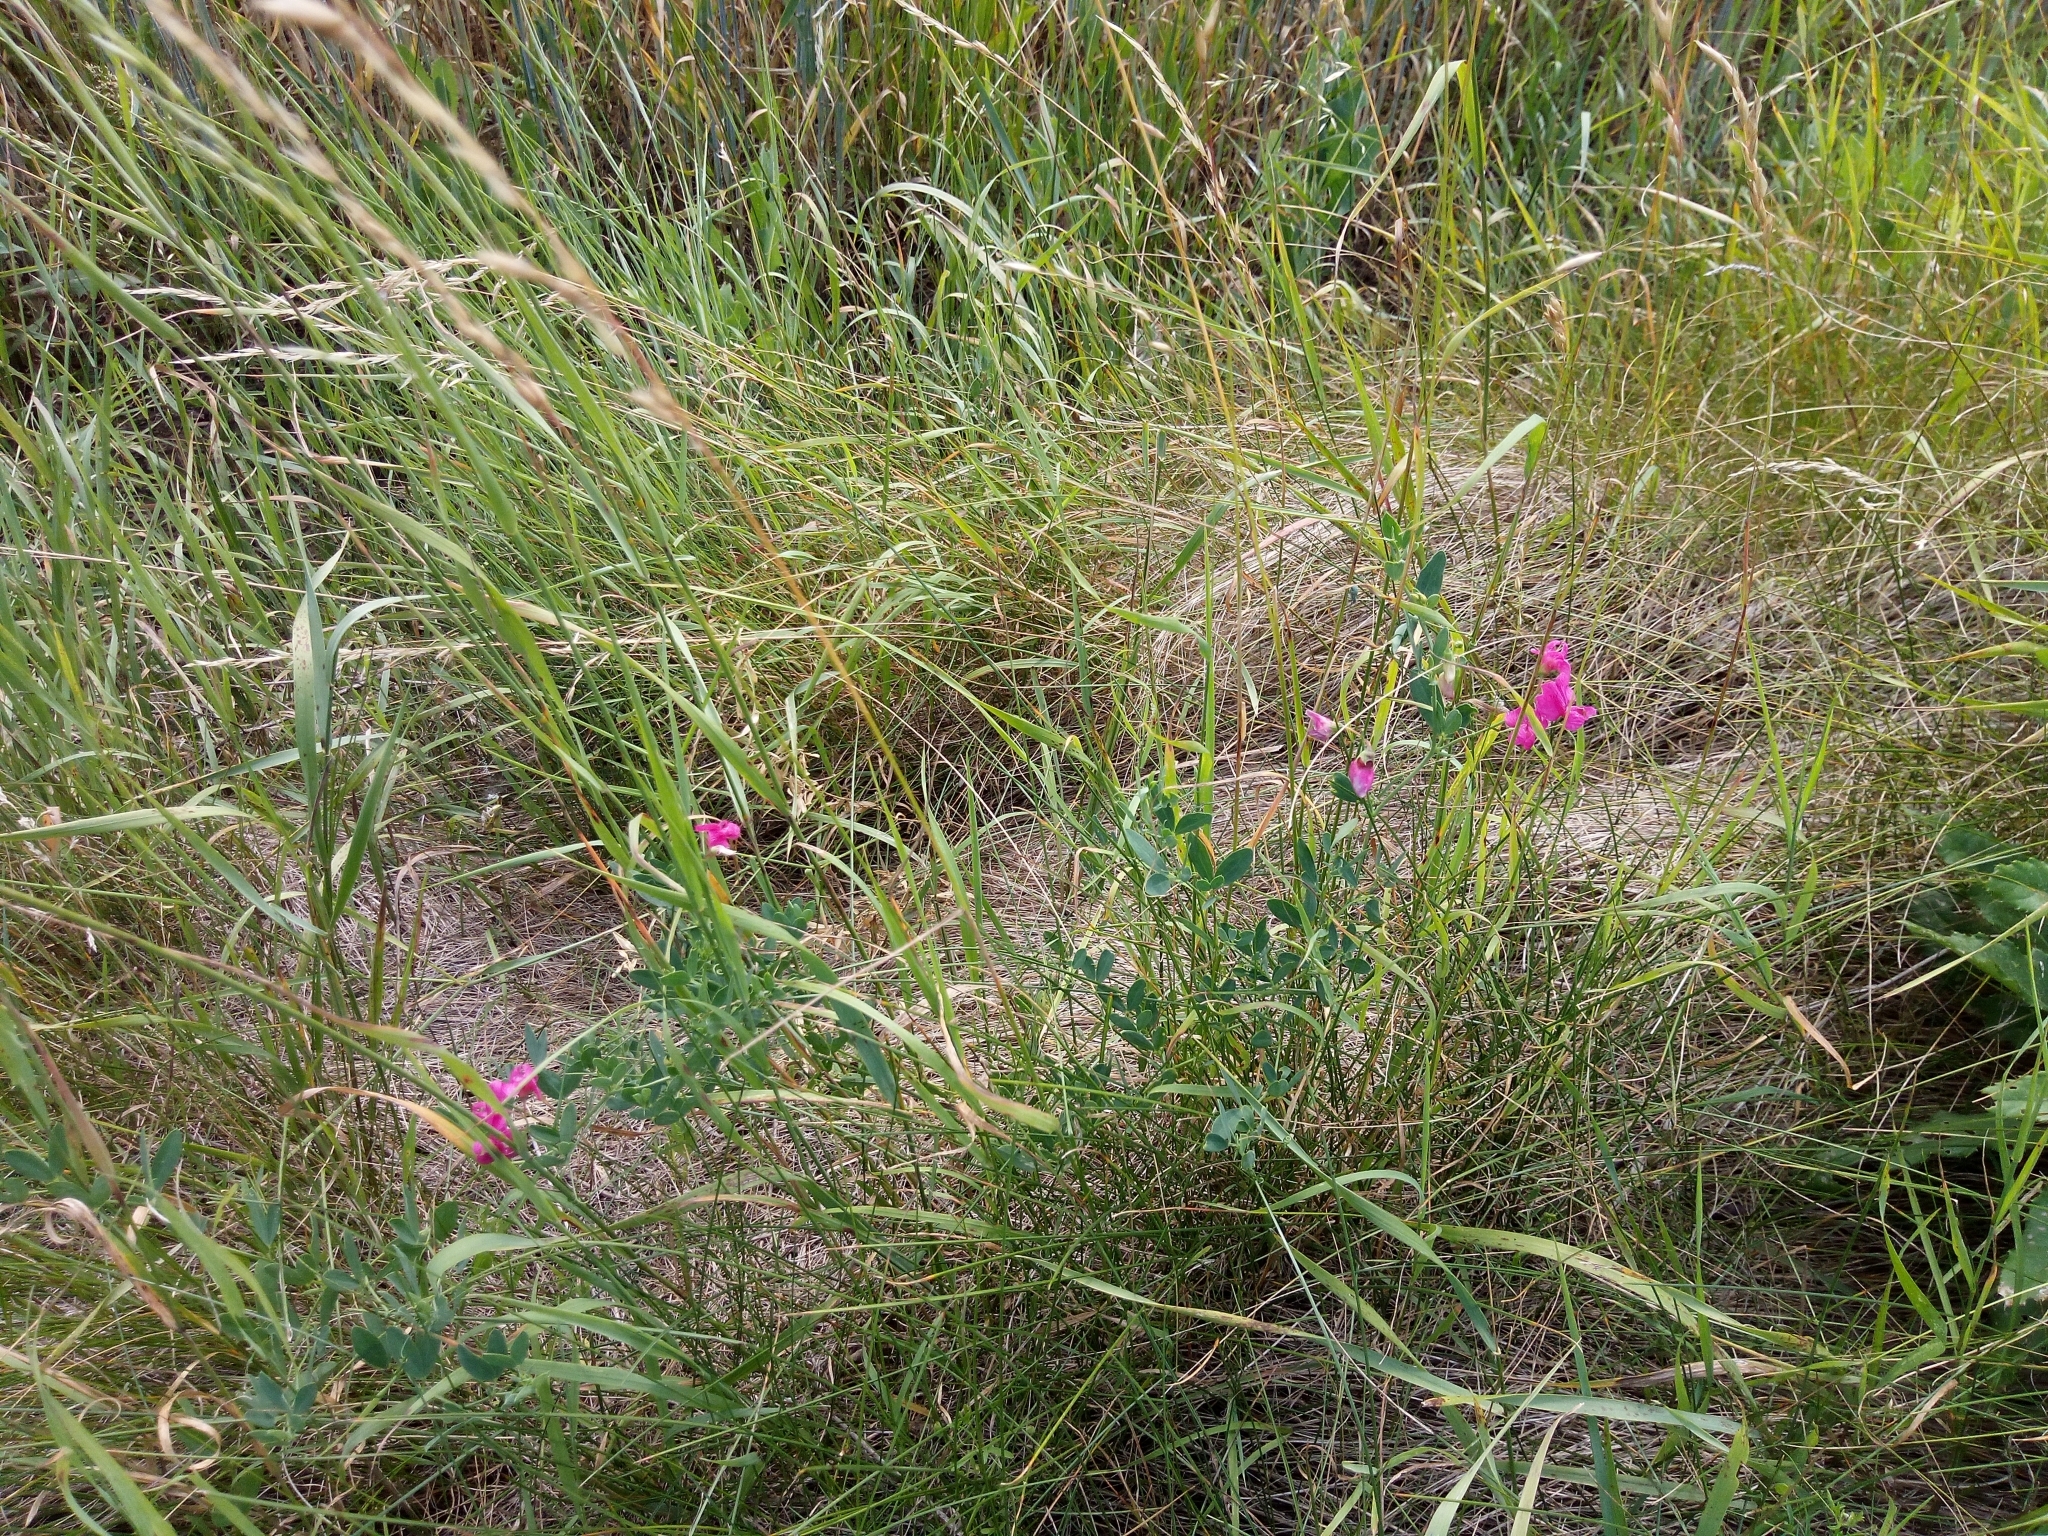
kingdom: Plantae
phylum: Tracheophyta
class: Magnoliopsida
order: Fabales
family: Fabaceae
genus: Lathyrus
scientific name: Lathyrus tuberosus
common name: Tuberous pea
